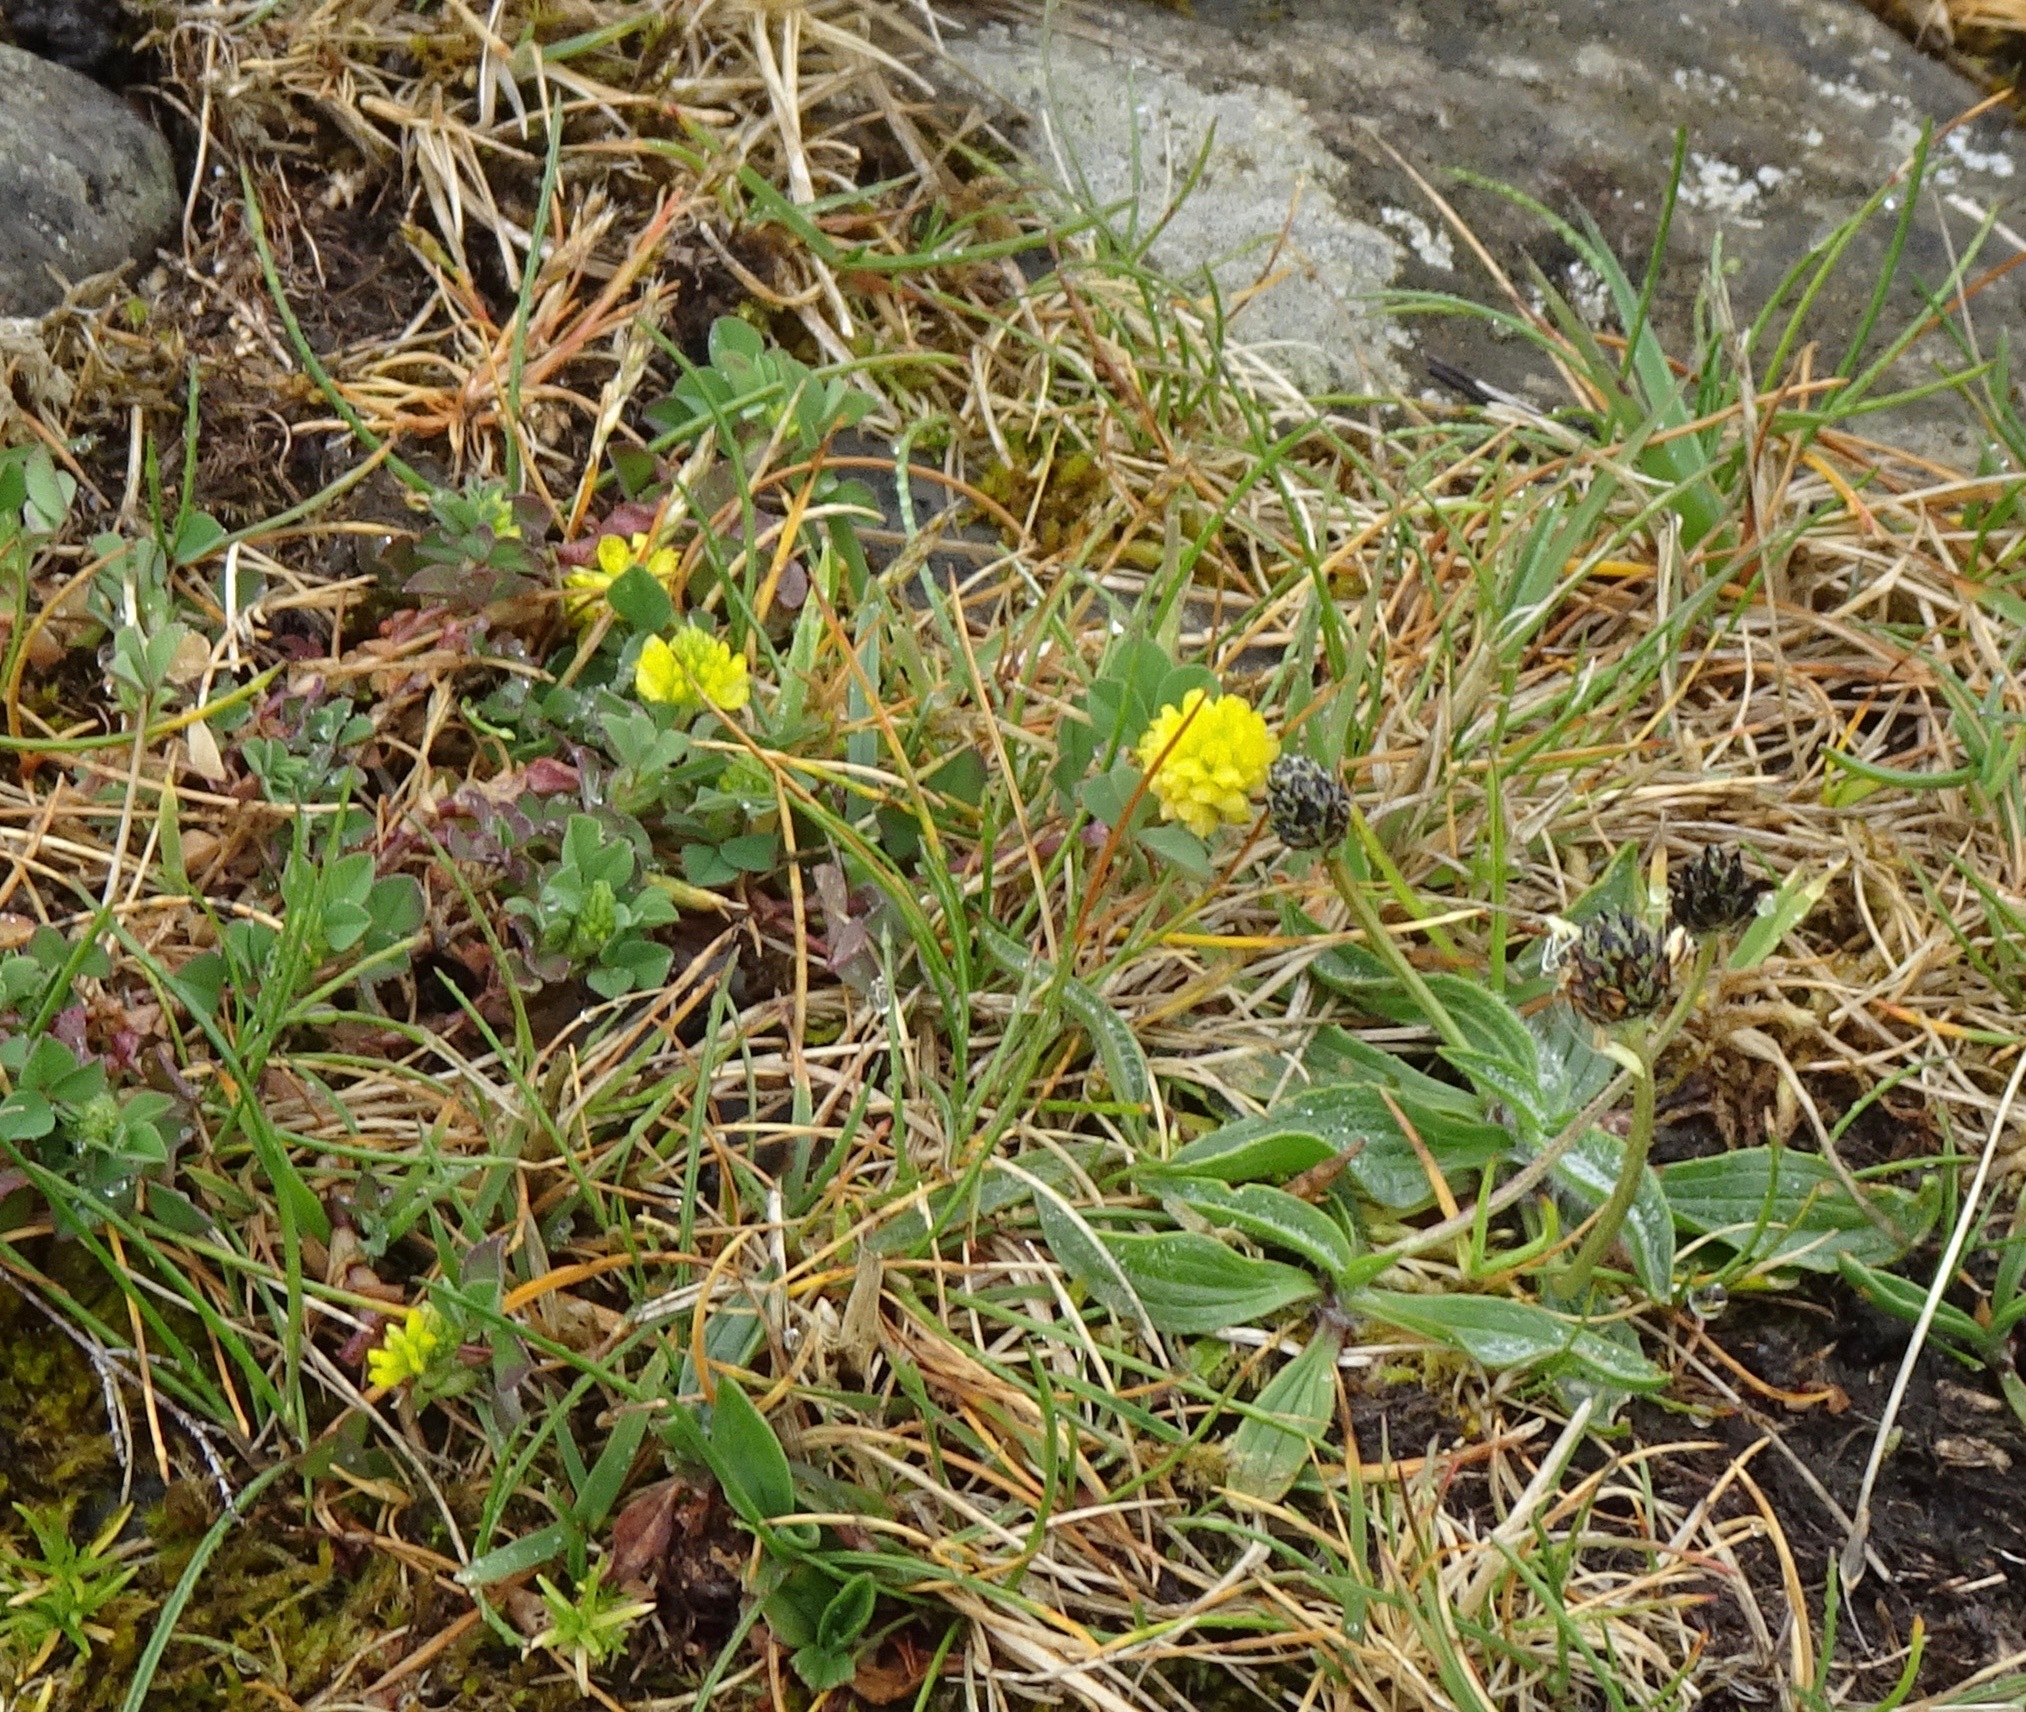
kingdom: Plantae
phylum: Tracheophyta
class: Magnoliopsida
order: Fabales
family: Fabaceae
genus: Trifolium
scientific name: Trifolium campestre
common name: Field clover
